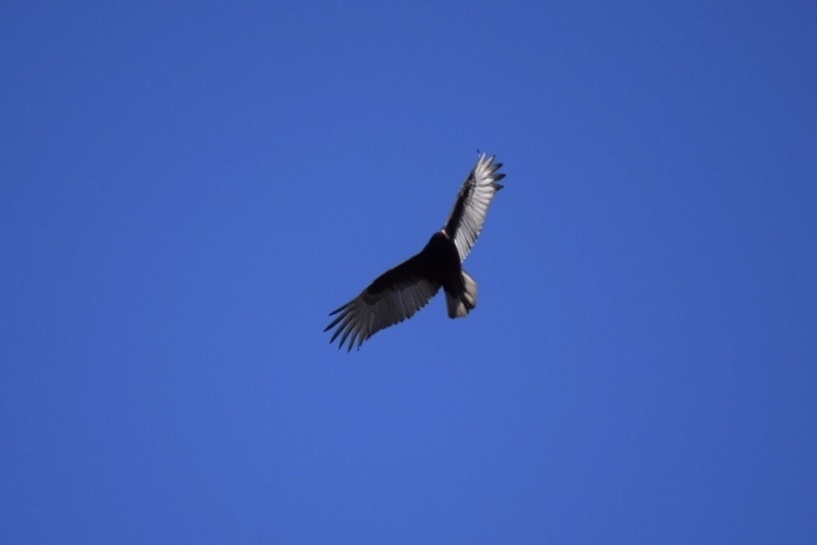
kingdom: Animalia
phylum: Chordata
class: Aves
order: Accipitriformes
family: Cathartidae
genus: Cathartes
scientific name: Cathartes aura
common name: Turkey vulture
